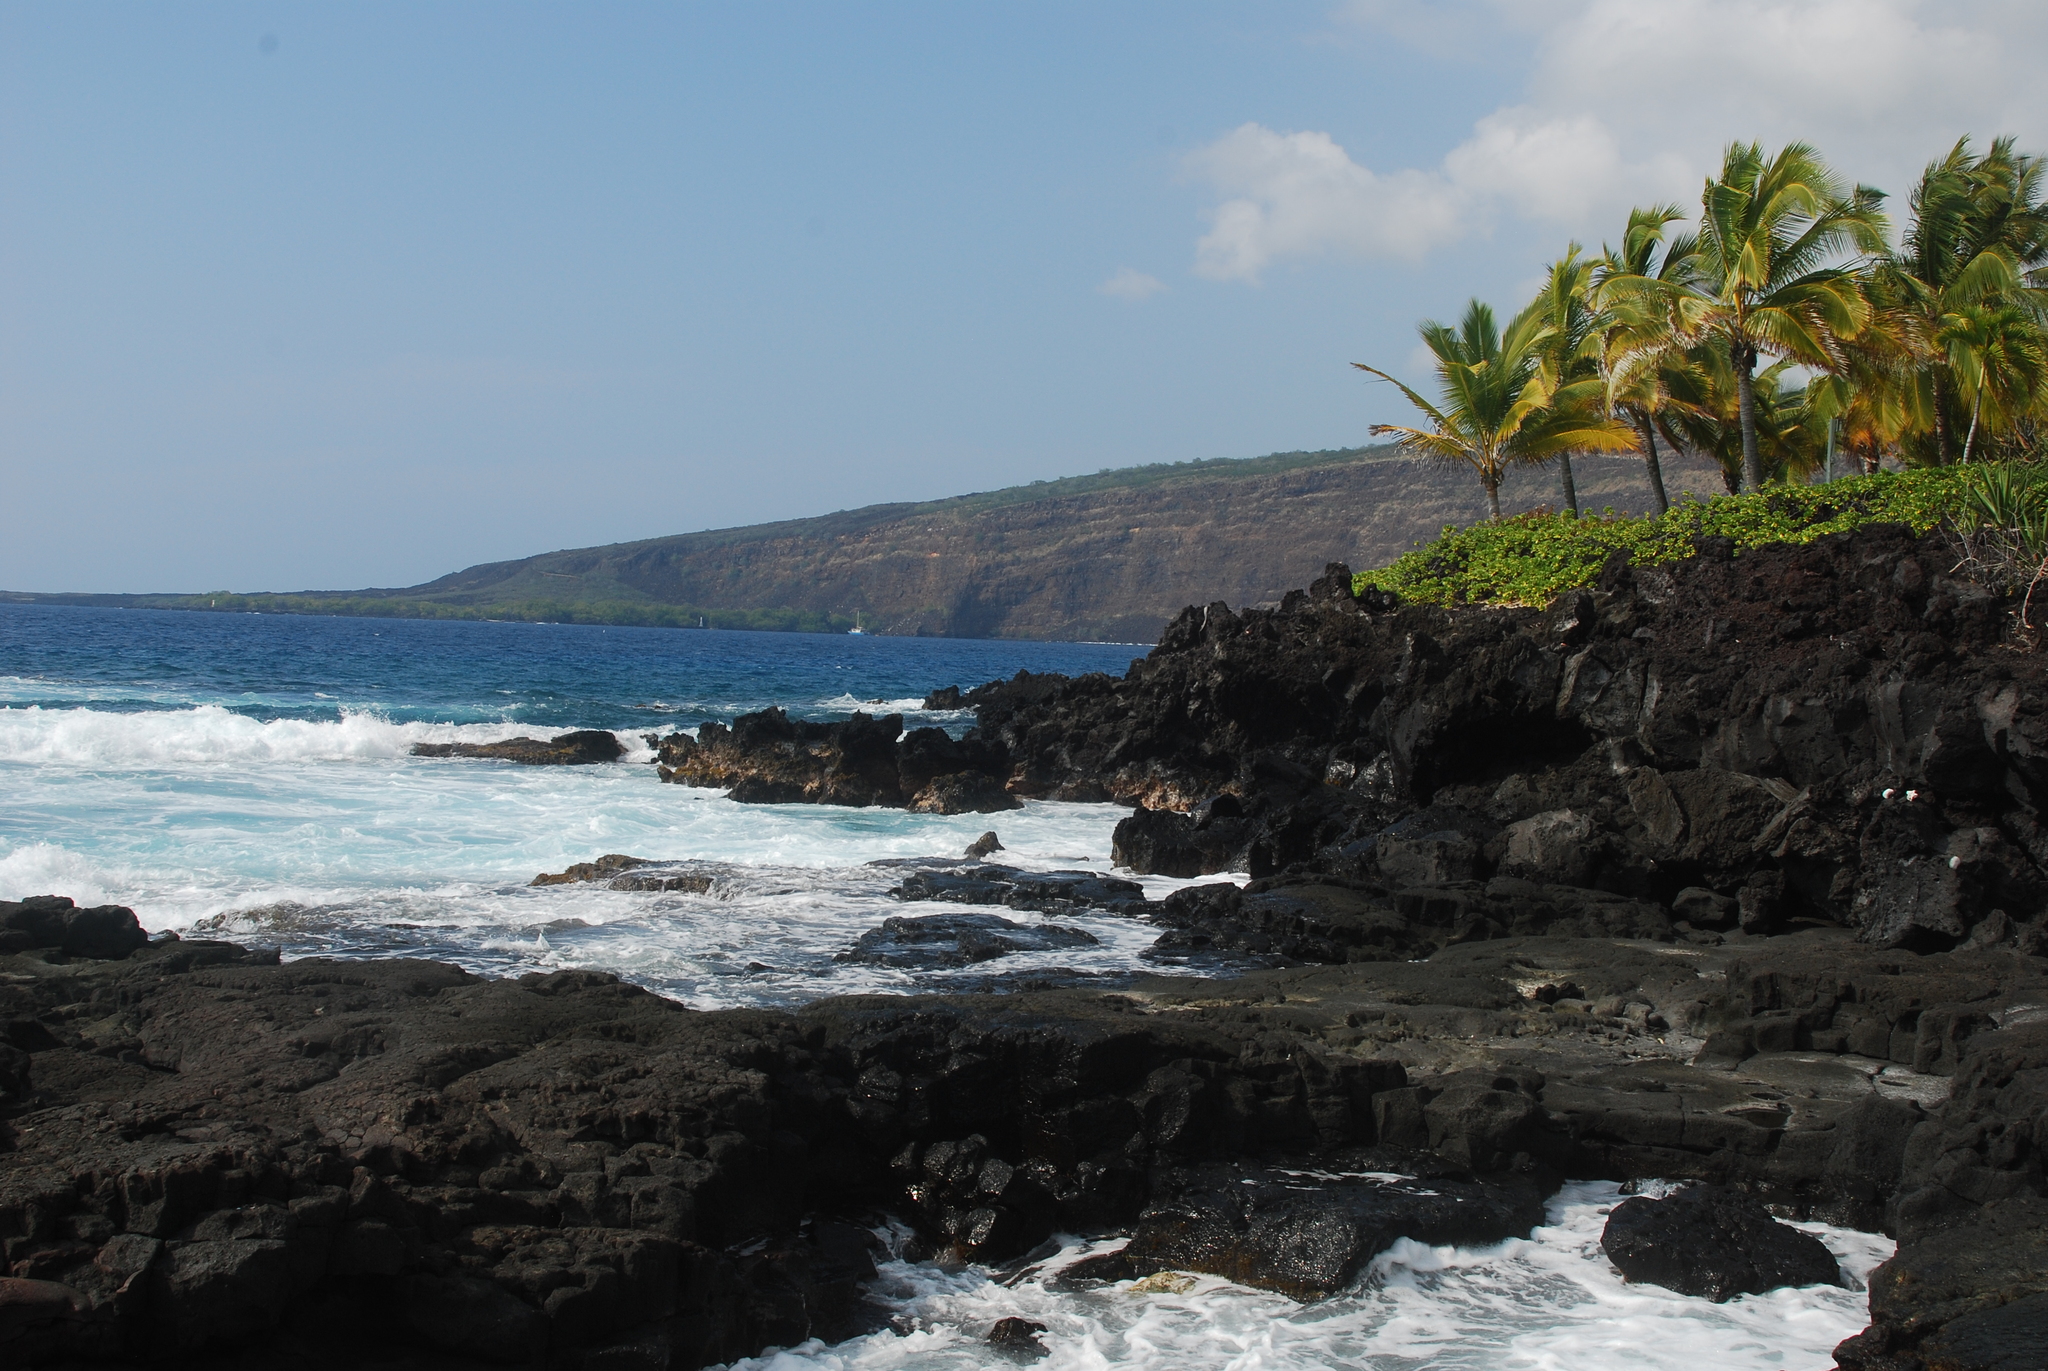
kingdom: Plantae
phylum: Tracheophyta
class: Liliopsida
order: Arecales
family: Arecaceae
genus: Cocos
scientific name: Cocos nucifera
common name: Coconut palm
